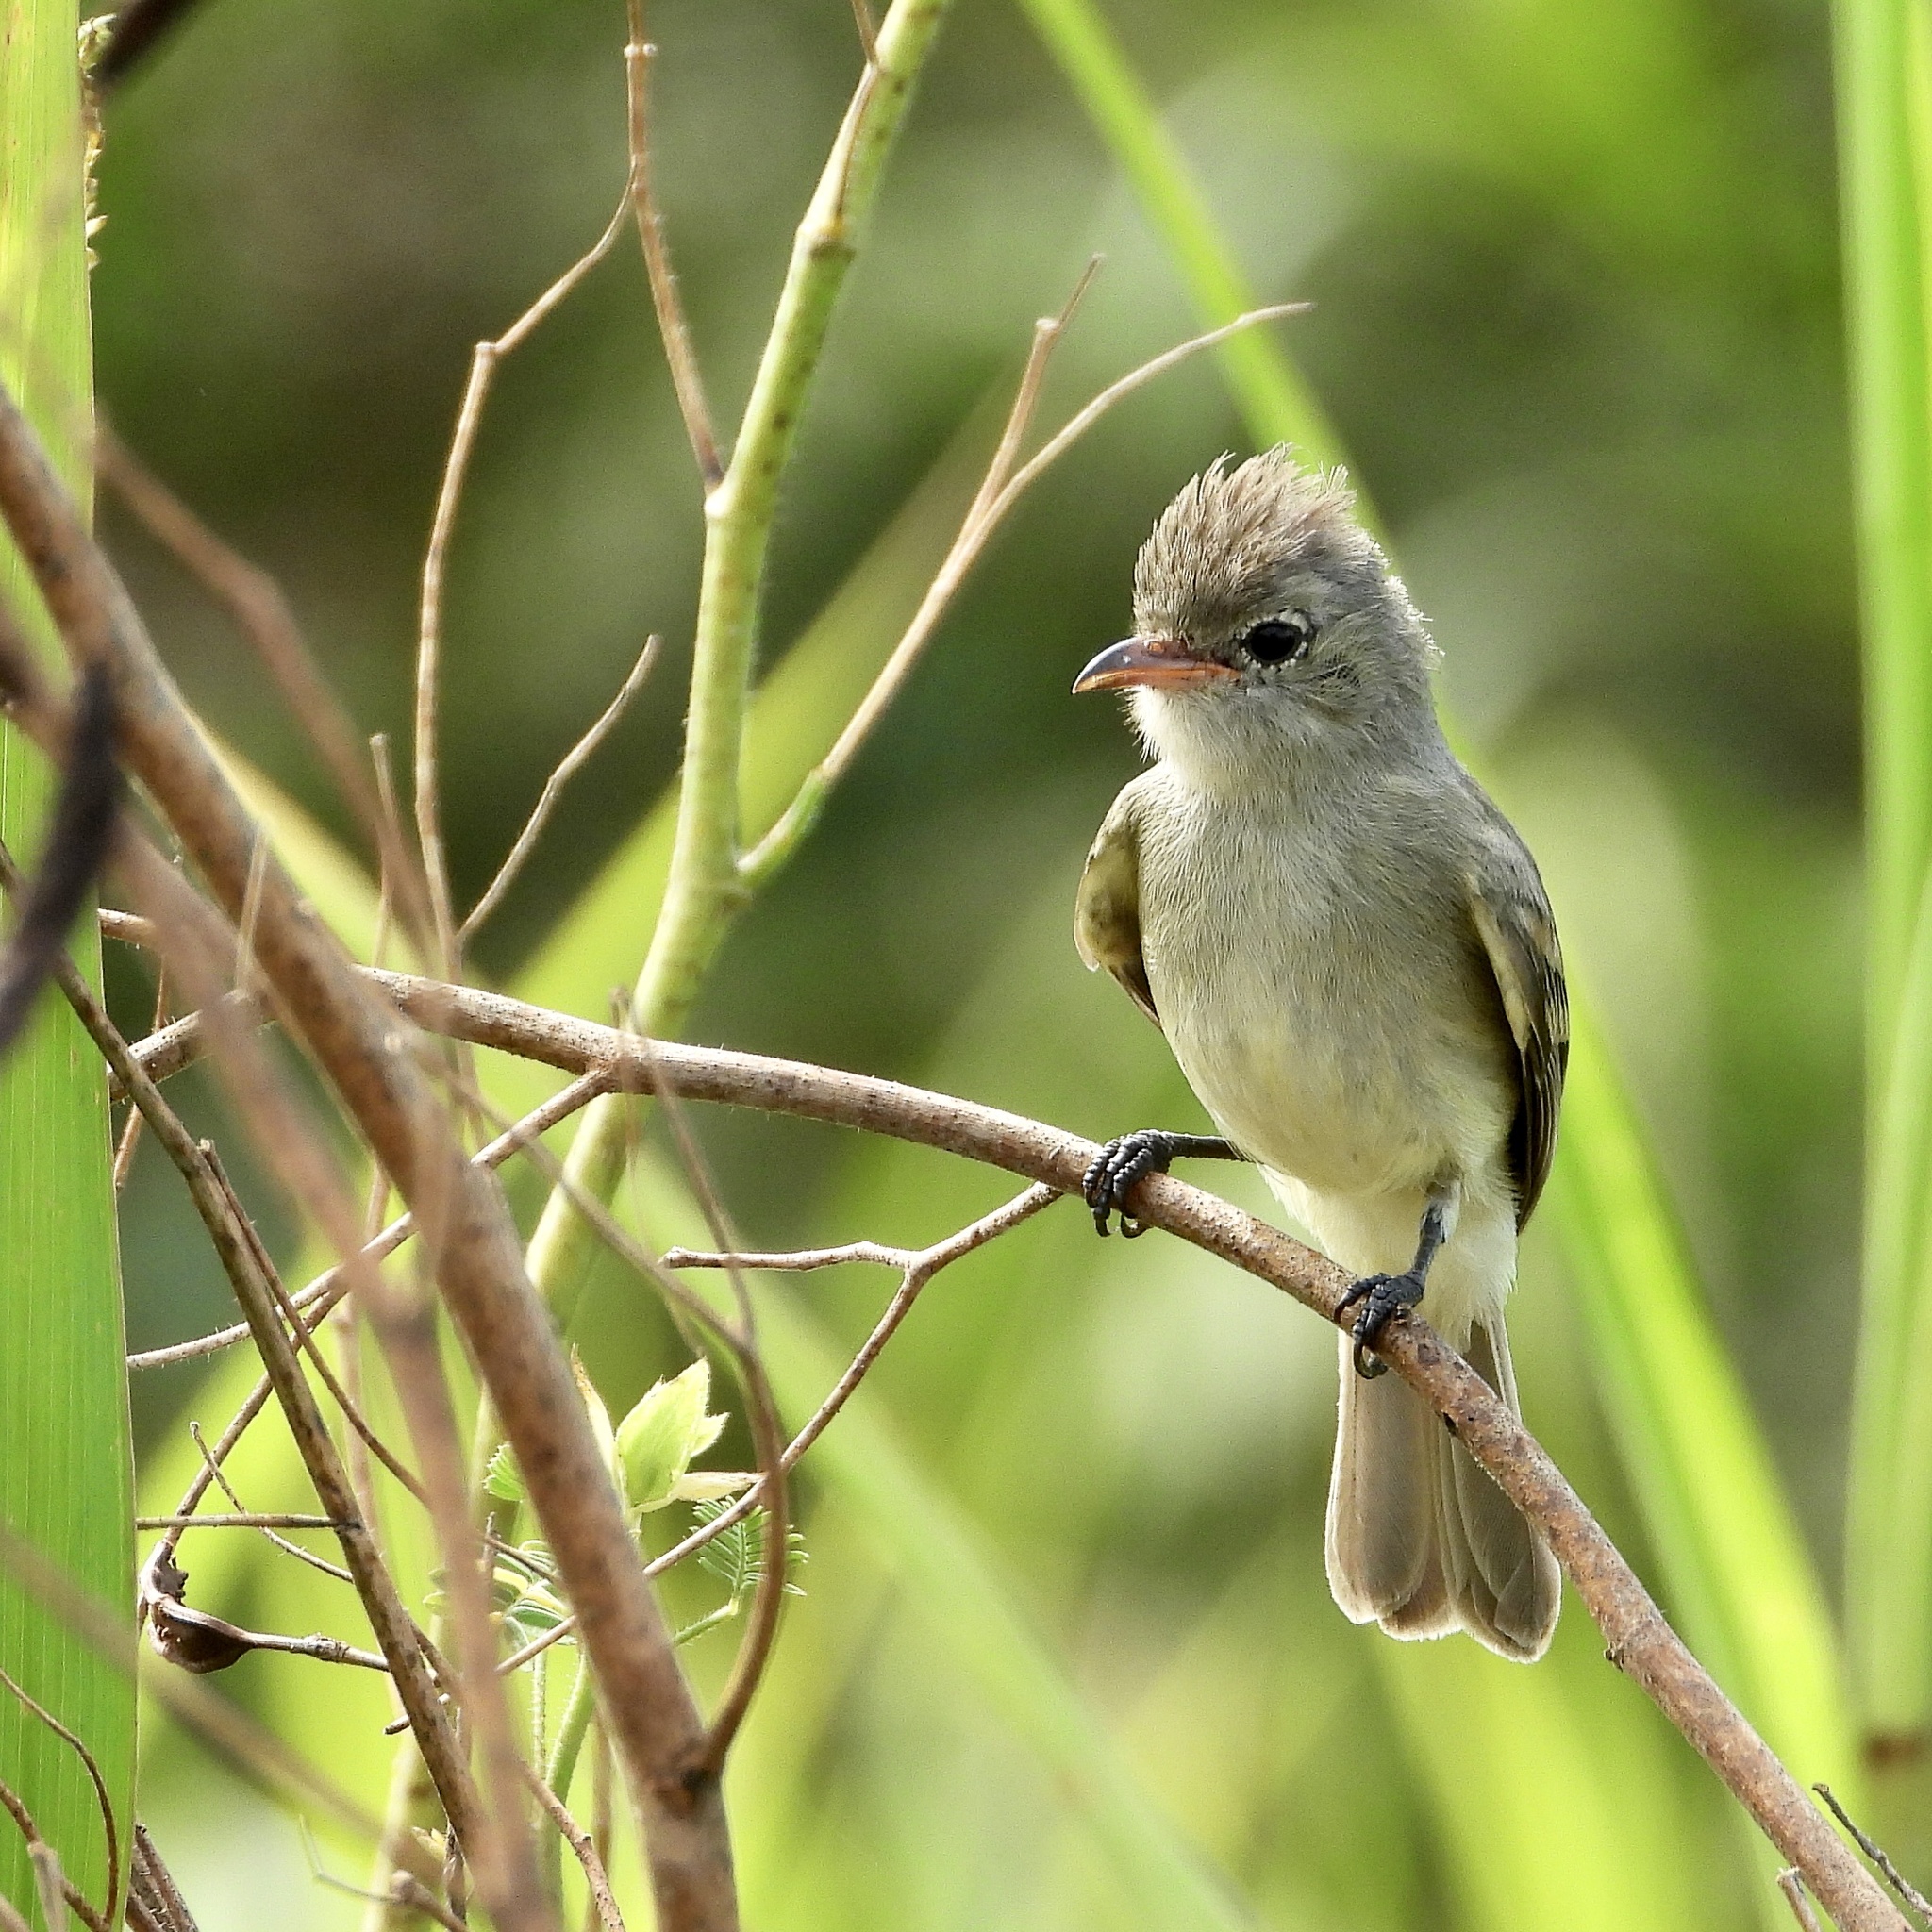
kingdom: Animalia
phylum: Chordata
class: Aves
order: Passeriformes
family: Tyrannidae
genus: Camptostoma
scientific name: Camptostoma imberbe
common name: Northern beardless-tyrannulet
